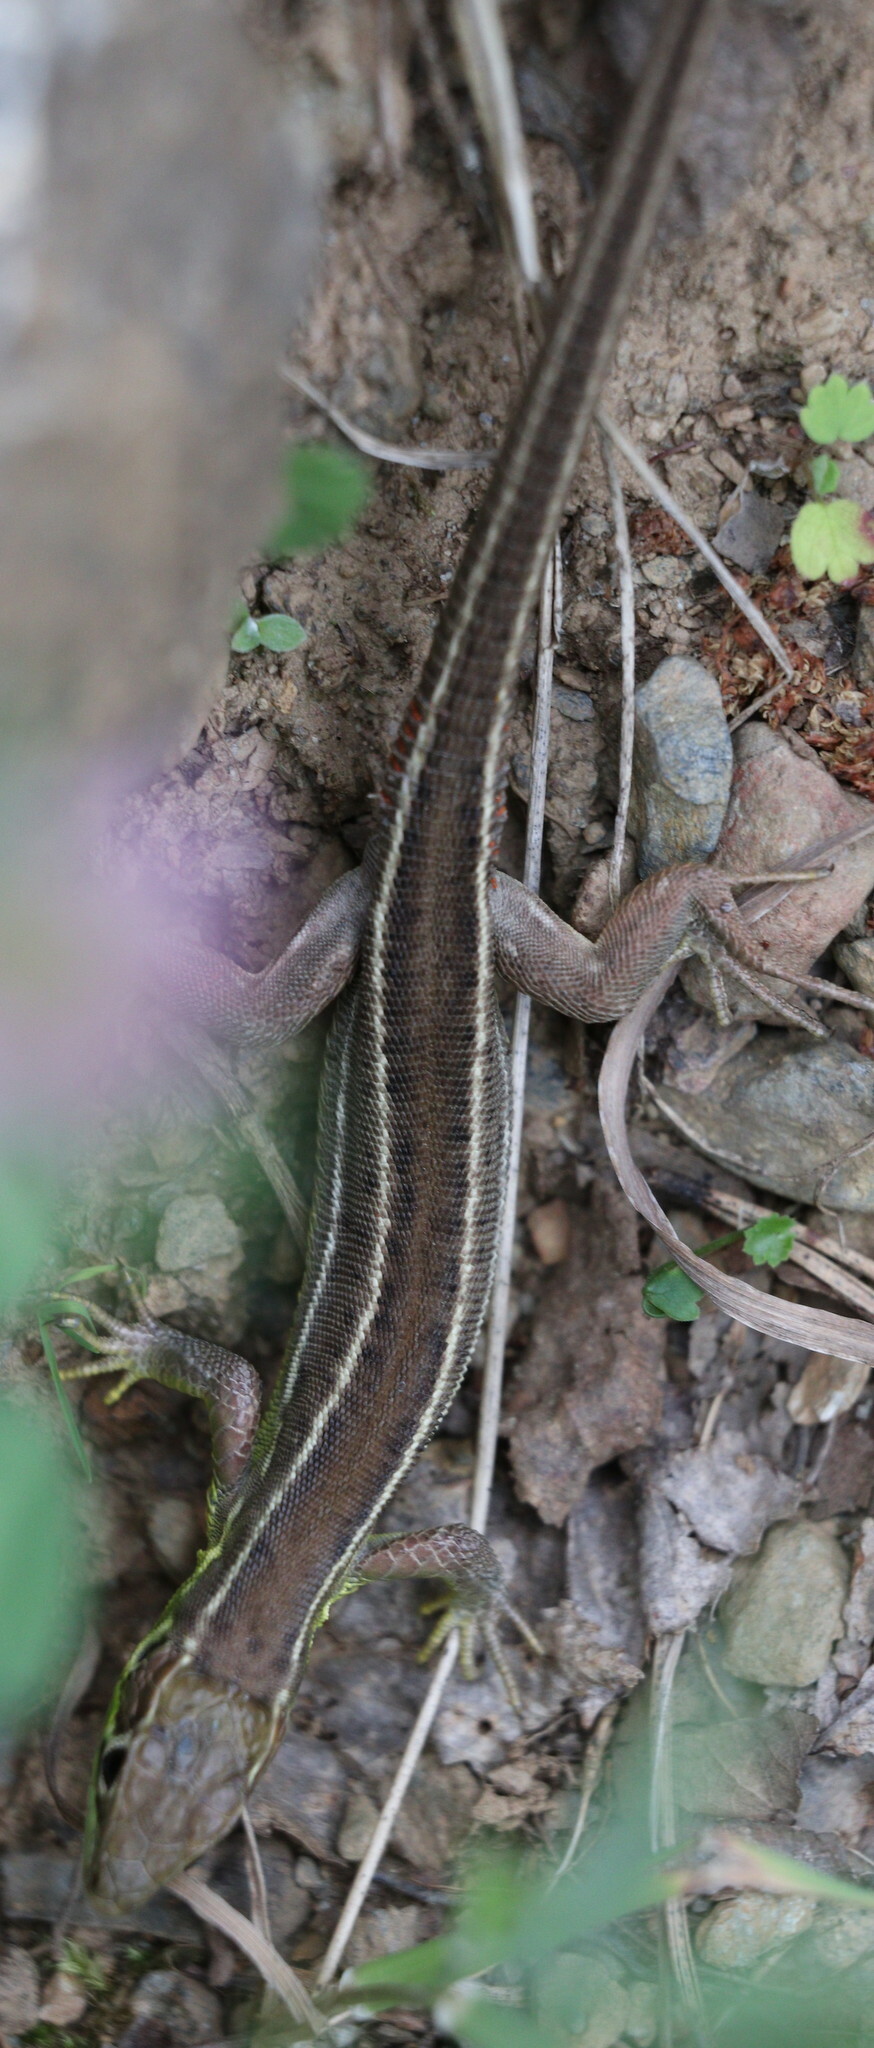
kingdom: Animalia
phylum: Chordata
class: Squamata
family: Lacertidae
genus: Lacerta
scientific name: Lacerta bilineata
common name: Western green lizard
